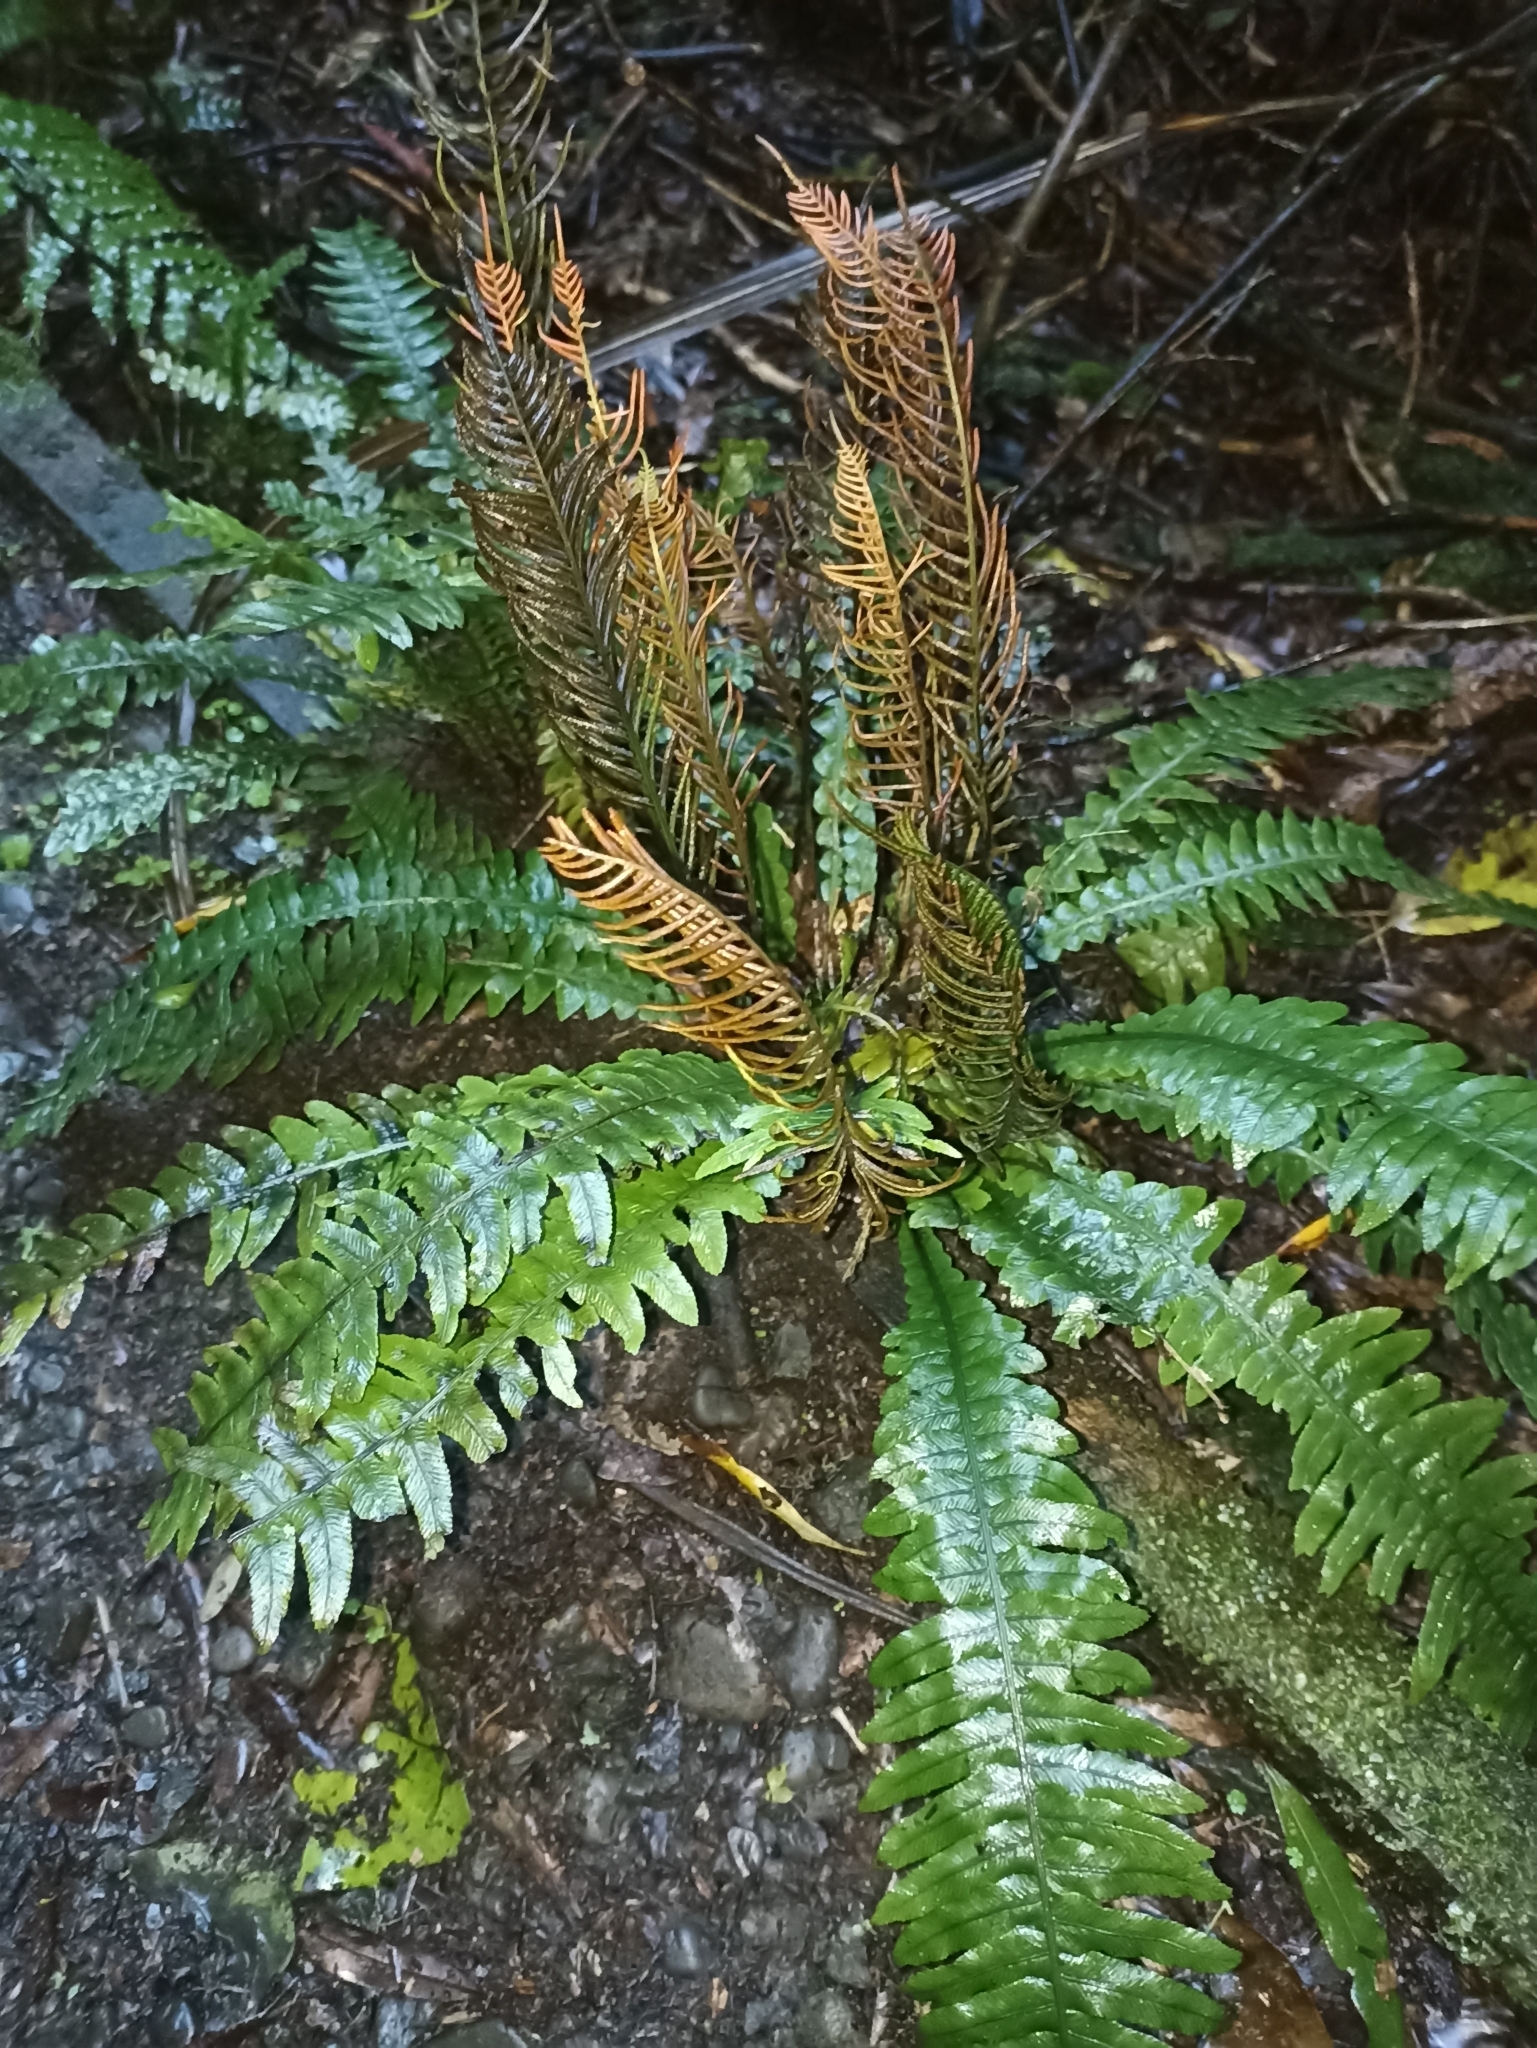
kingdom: Plantae
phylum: Tracheophyta
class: Polypodiopsida
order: Polypodiales
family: Blechnaceae
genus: Austroblechnum
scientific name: Austroblechnum lanceolatum
